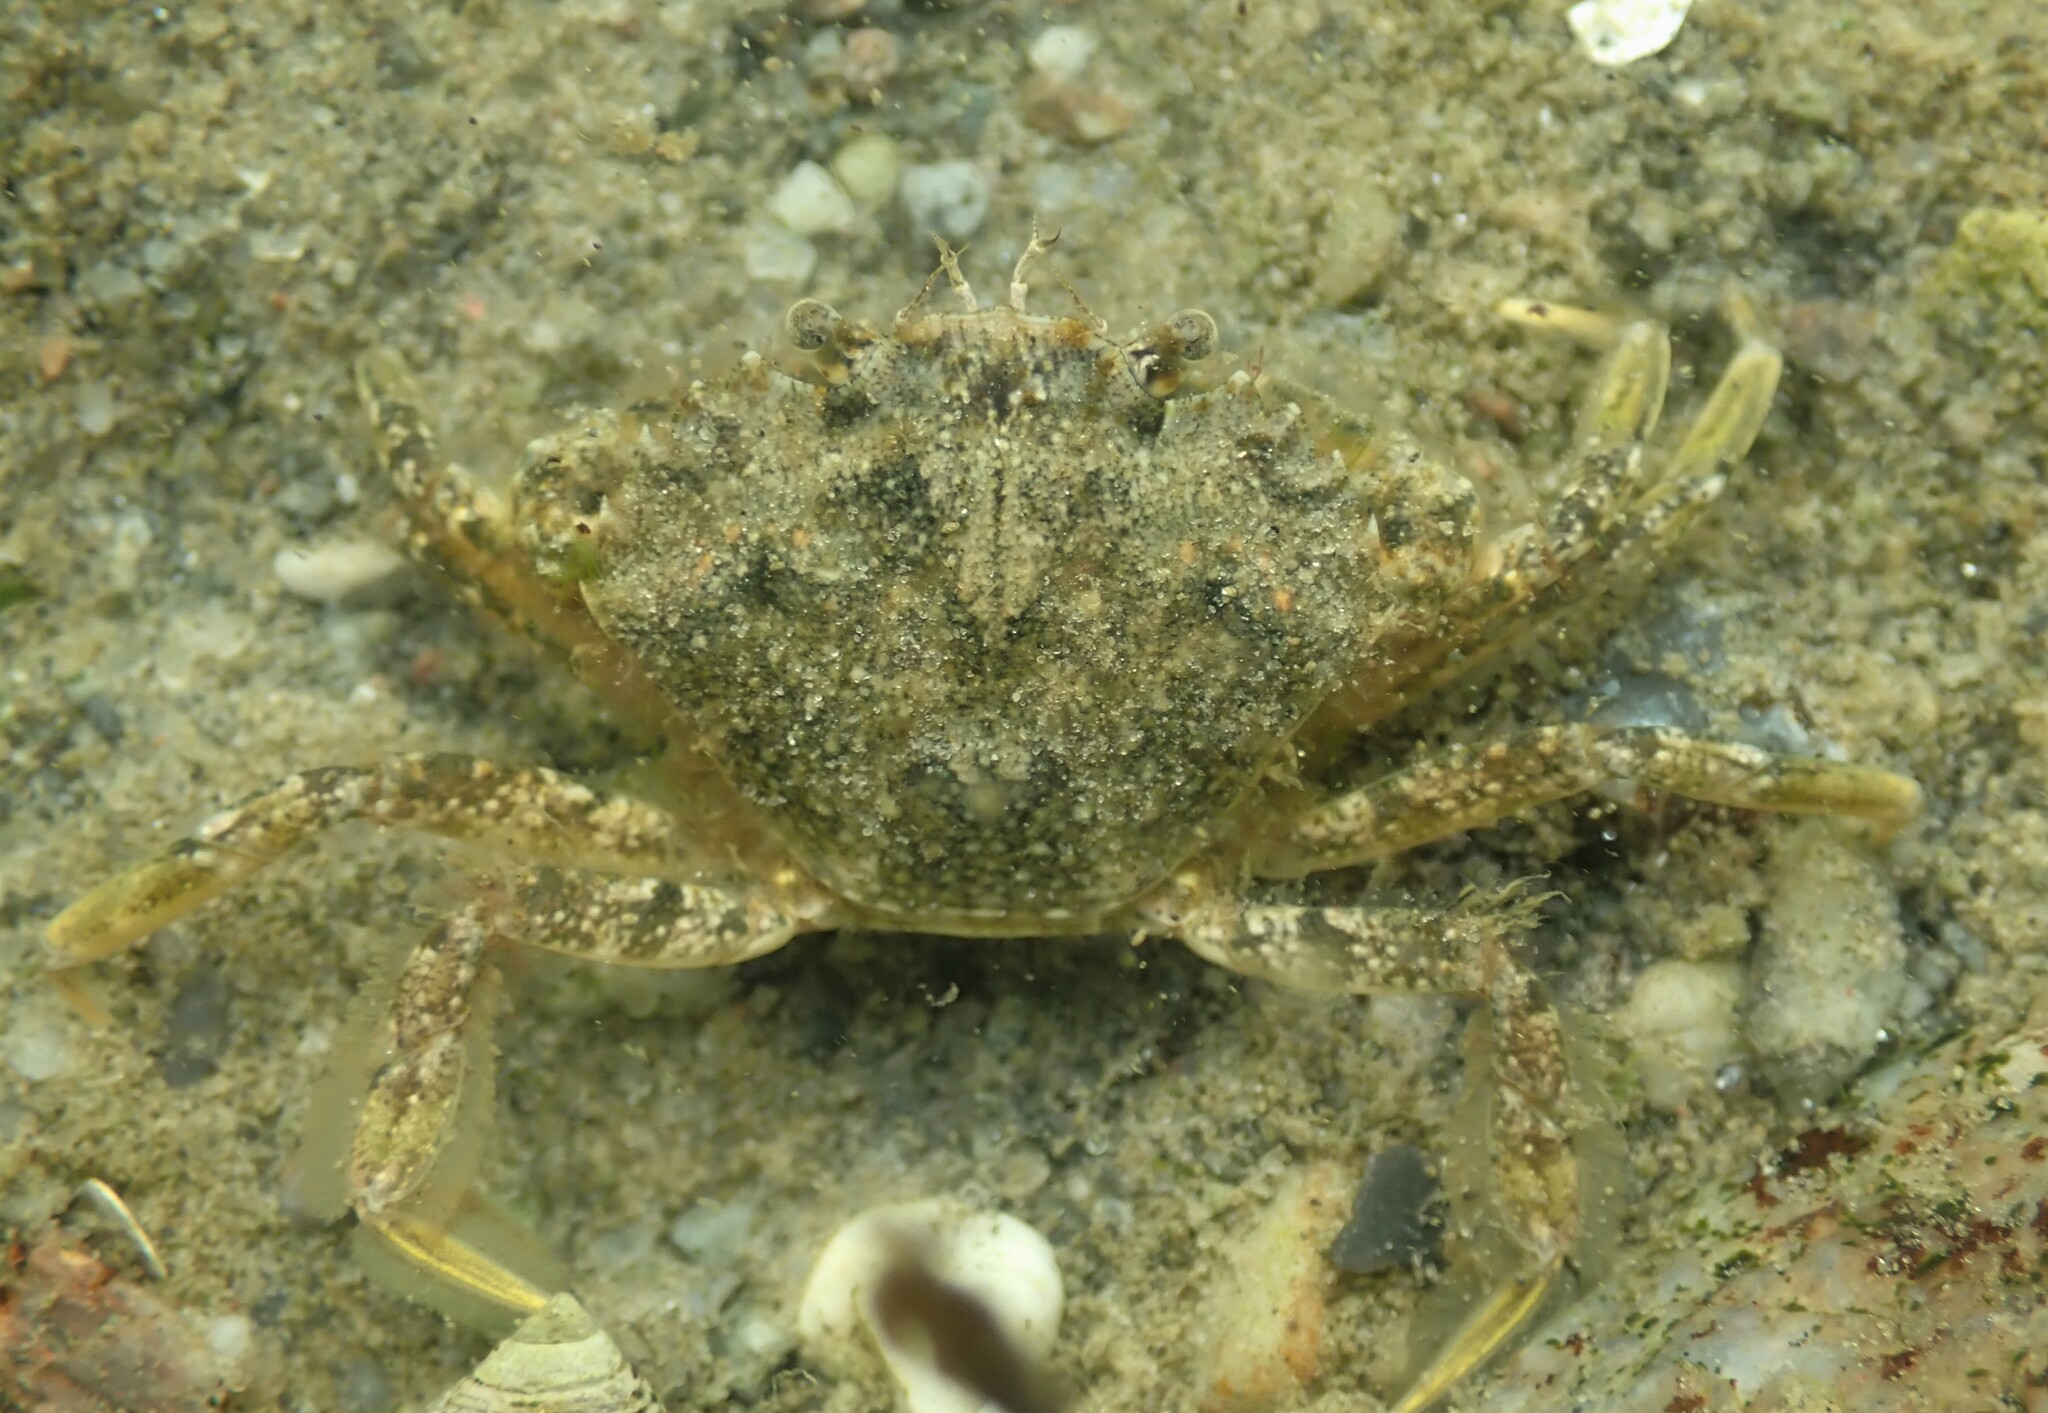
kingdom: Animalia
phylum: Arthropoda
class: Malacostraca
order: Decapoda
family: Carcinidae
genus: Carcinus
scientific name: Carcinus maenas
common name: European green crab
